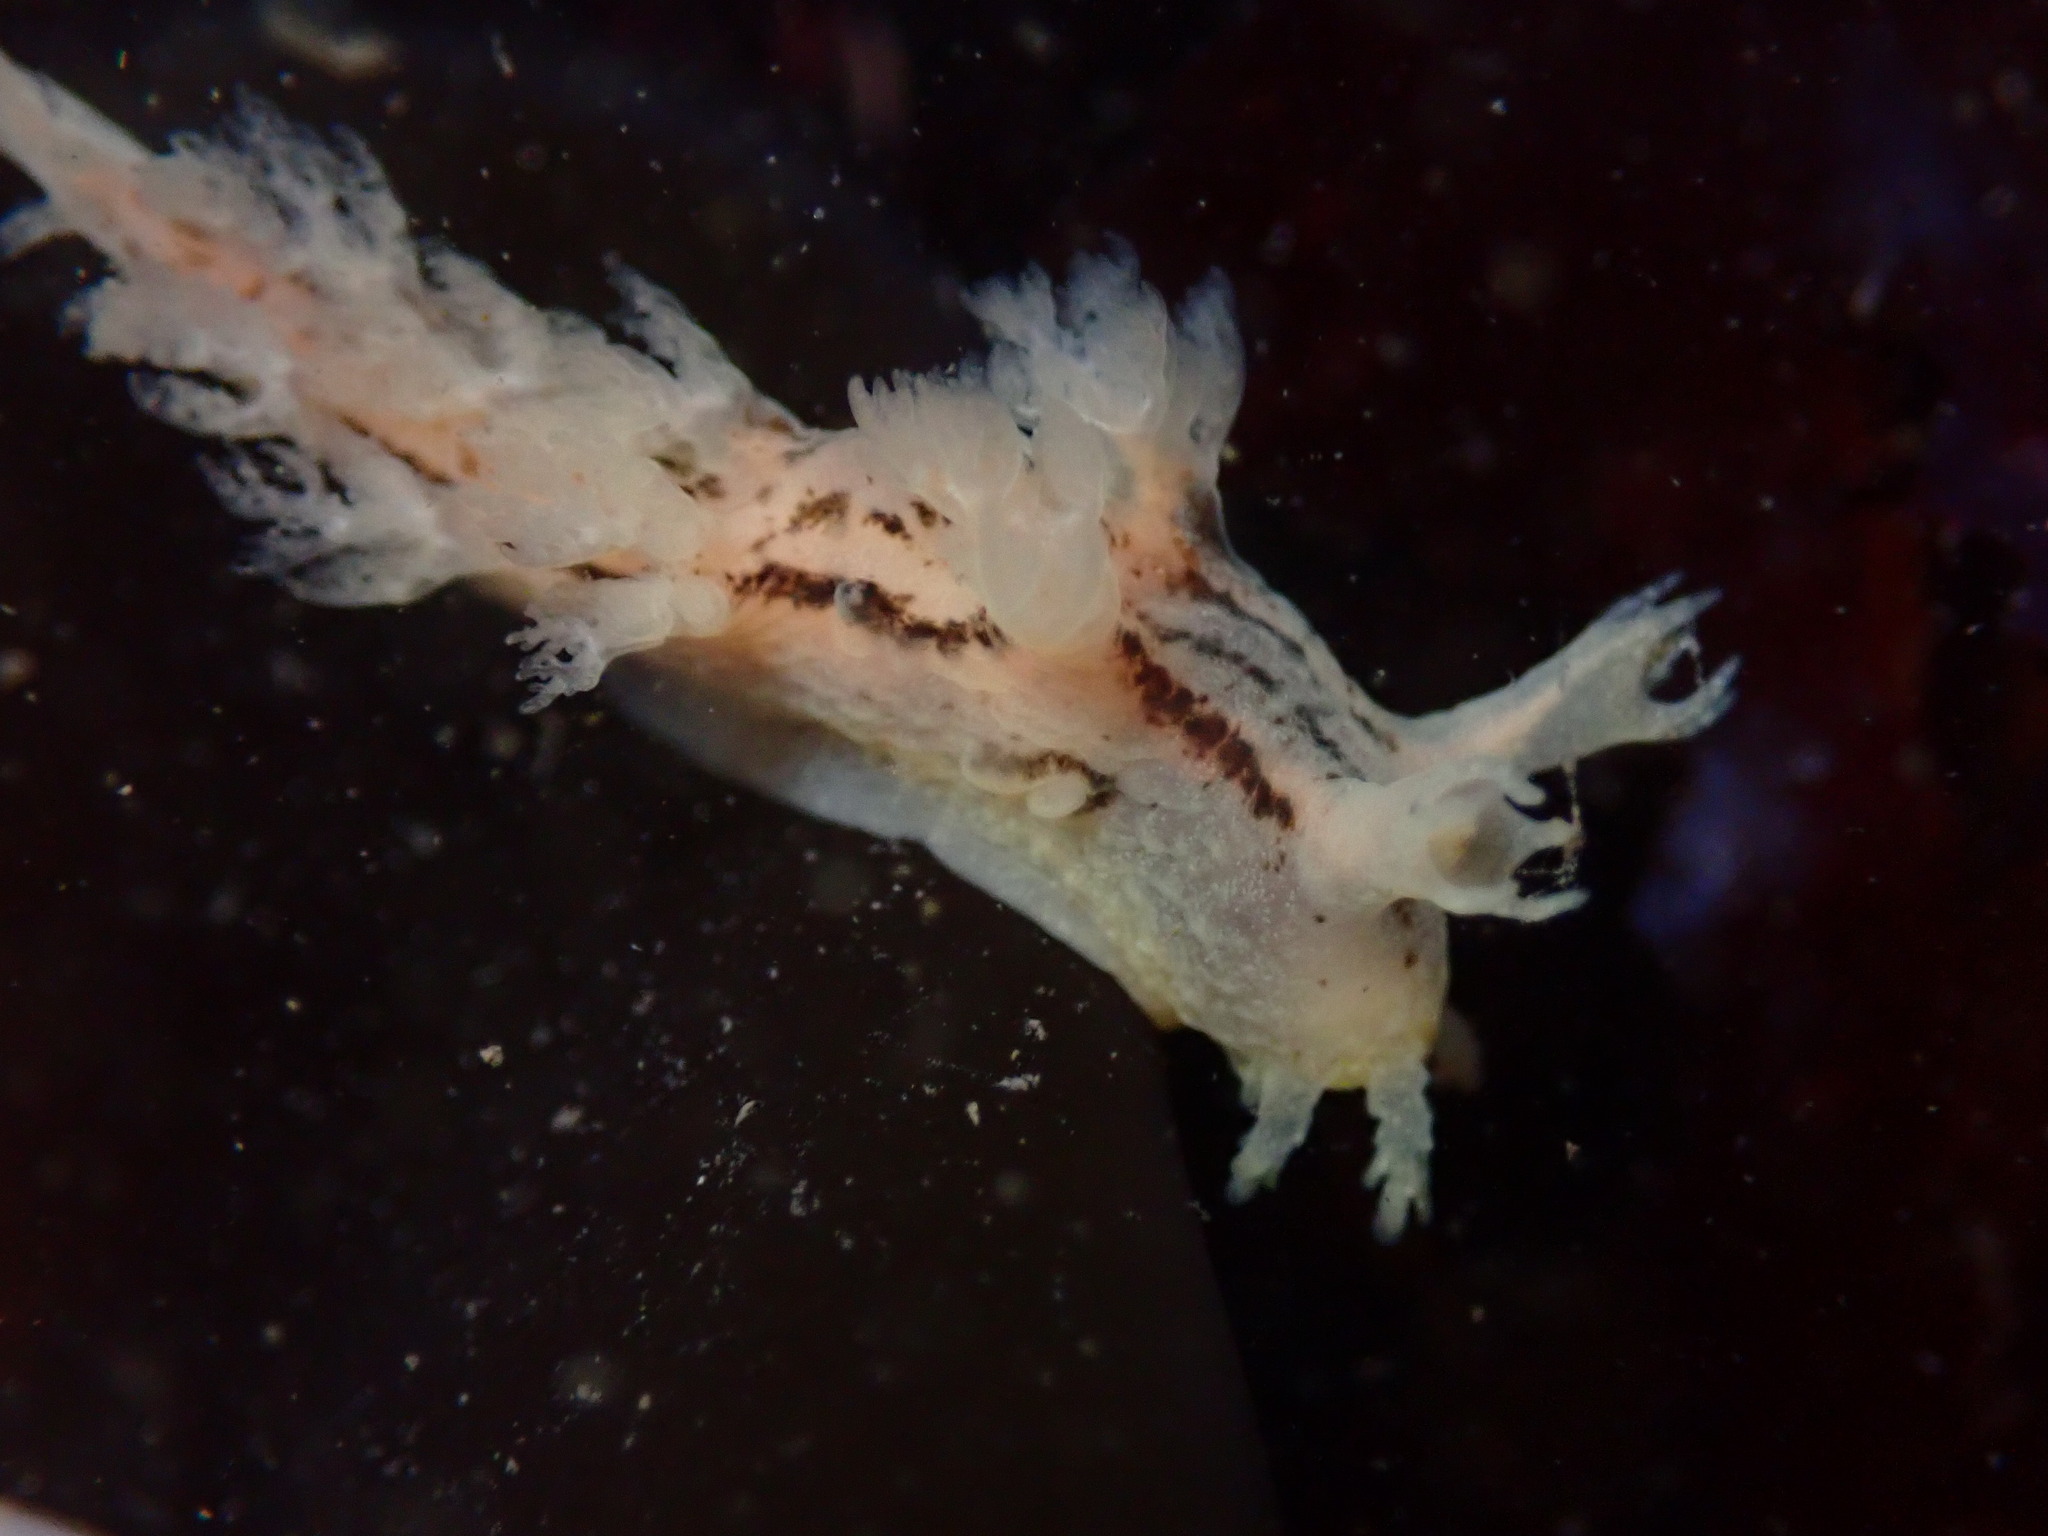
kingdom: Animalia
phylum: Mollusca
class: Gastropoda
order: Nudibranchia
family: Dendronotidae
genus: Dendronotus
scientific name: Dendronotus subramosus
